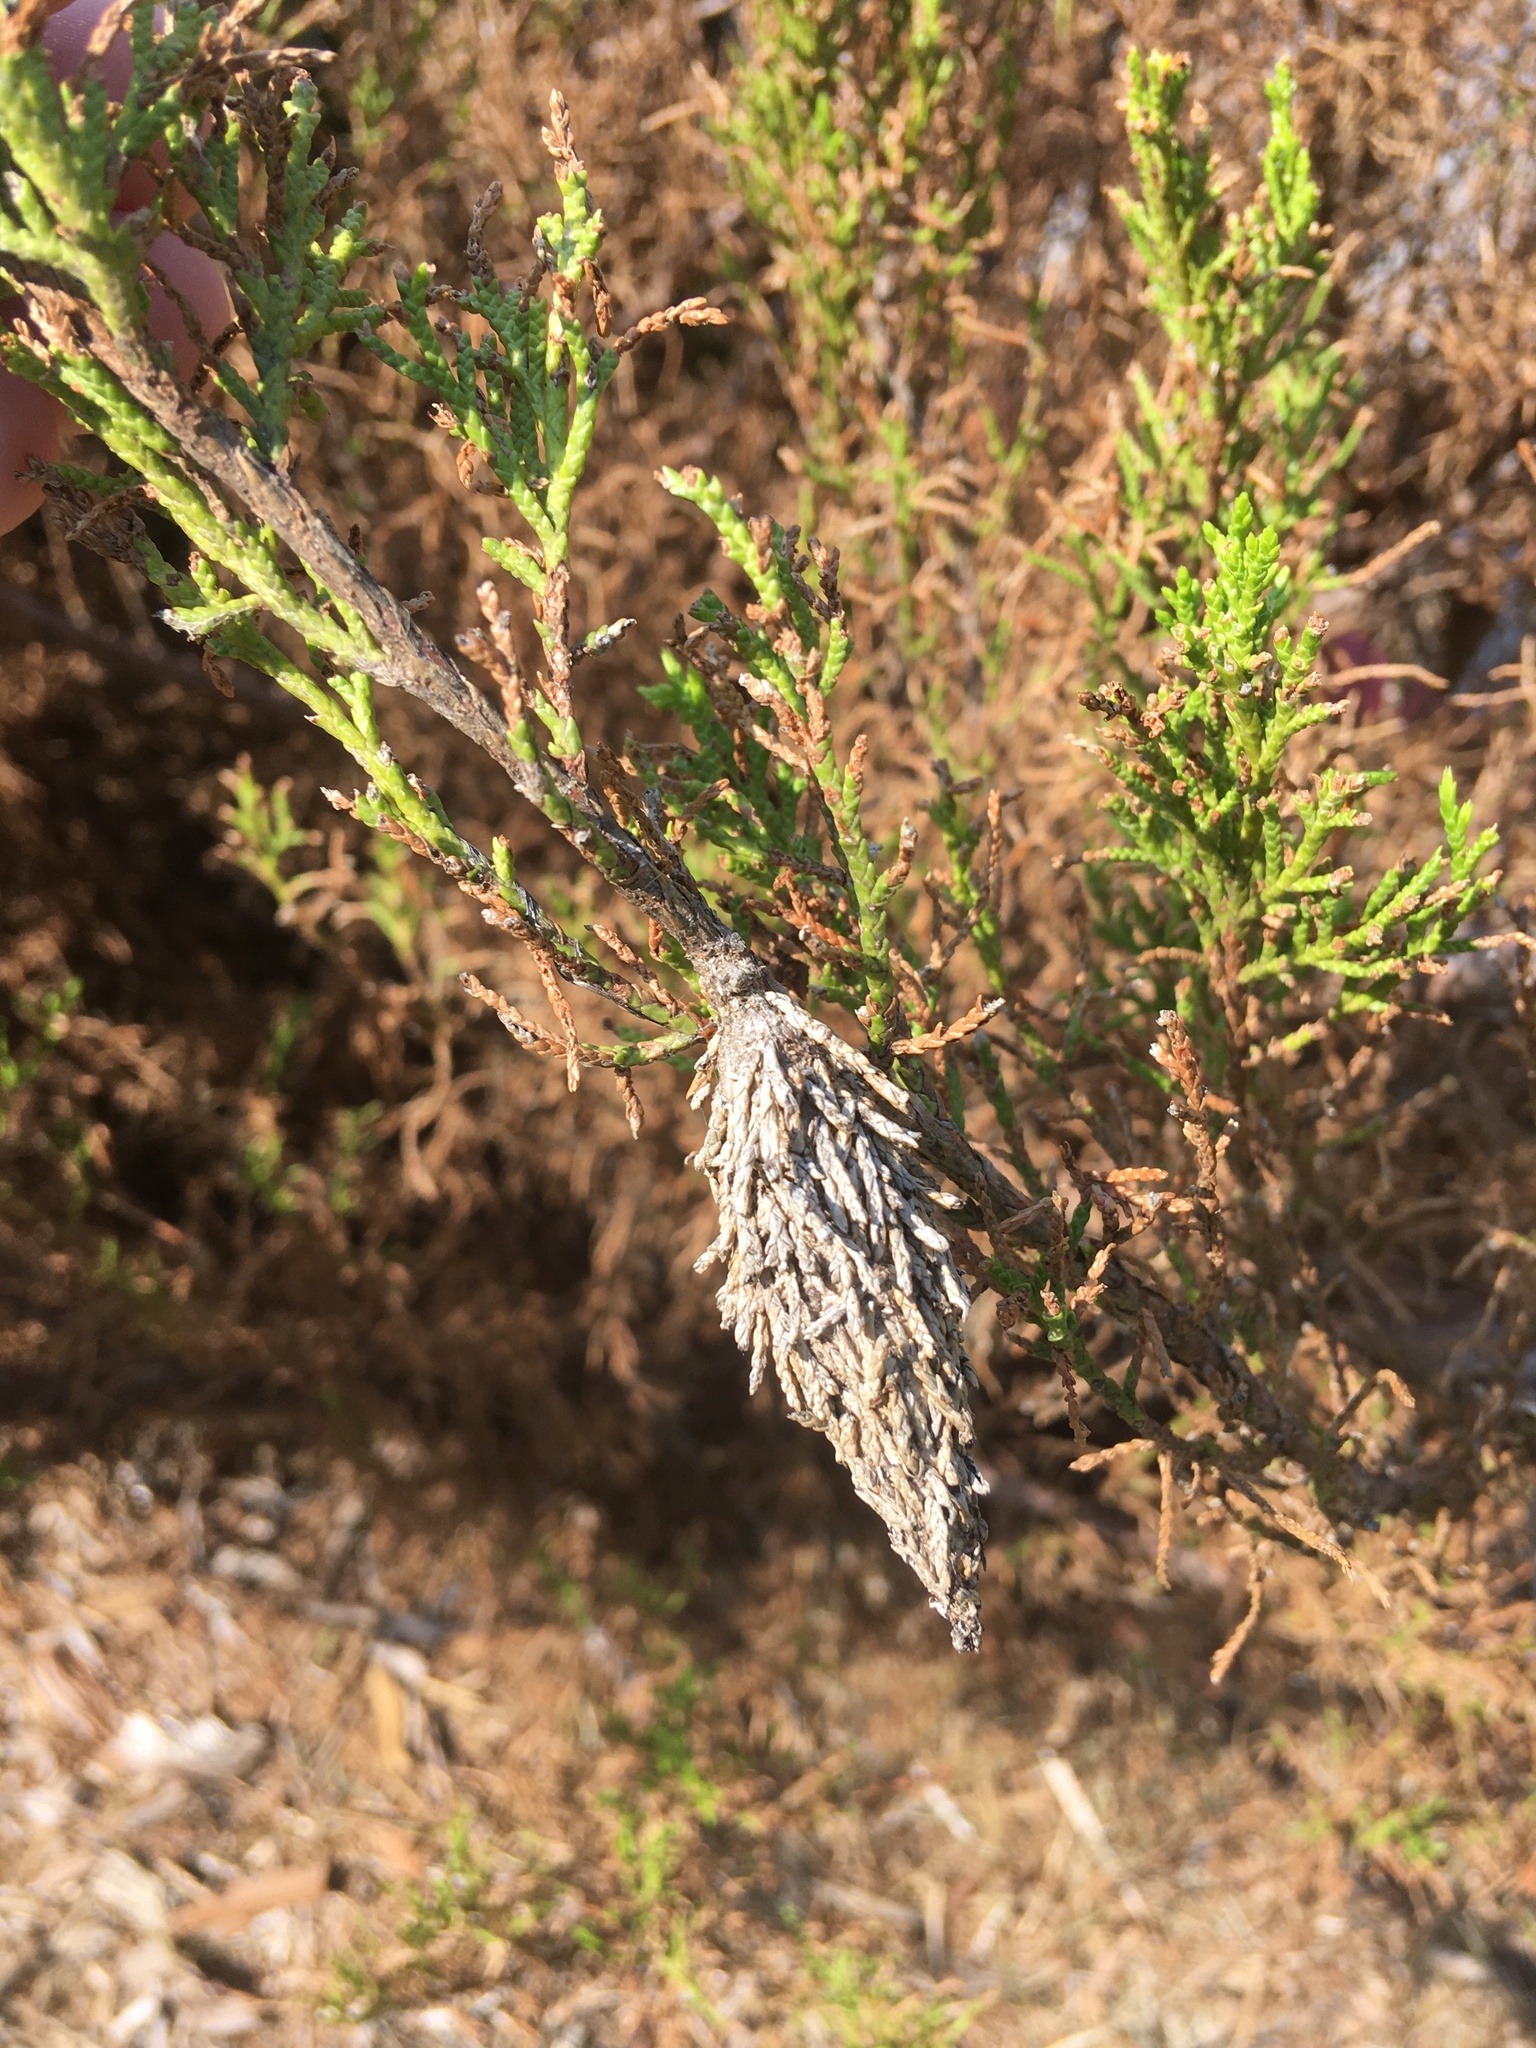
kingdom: Animalia
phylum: Arthropoda
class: Insecta
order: Lepidoptera
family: Psychidae
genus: Thyridopteryx
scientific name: Thyridopteryx ephemeraeformis
